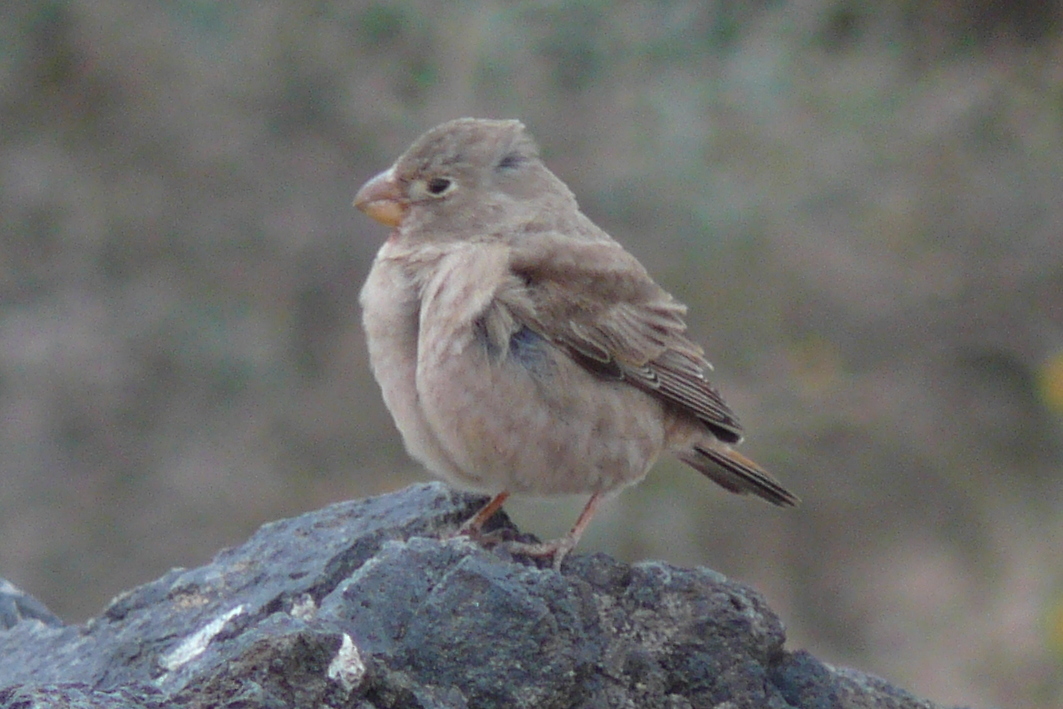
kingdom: Animalia
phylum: Chordata
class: Aves
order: Passeriformes
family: Fringillidae
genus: Bucanetes
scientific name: Bucanetes githagineus
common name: Trumpeter finch
